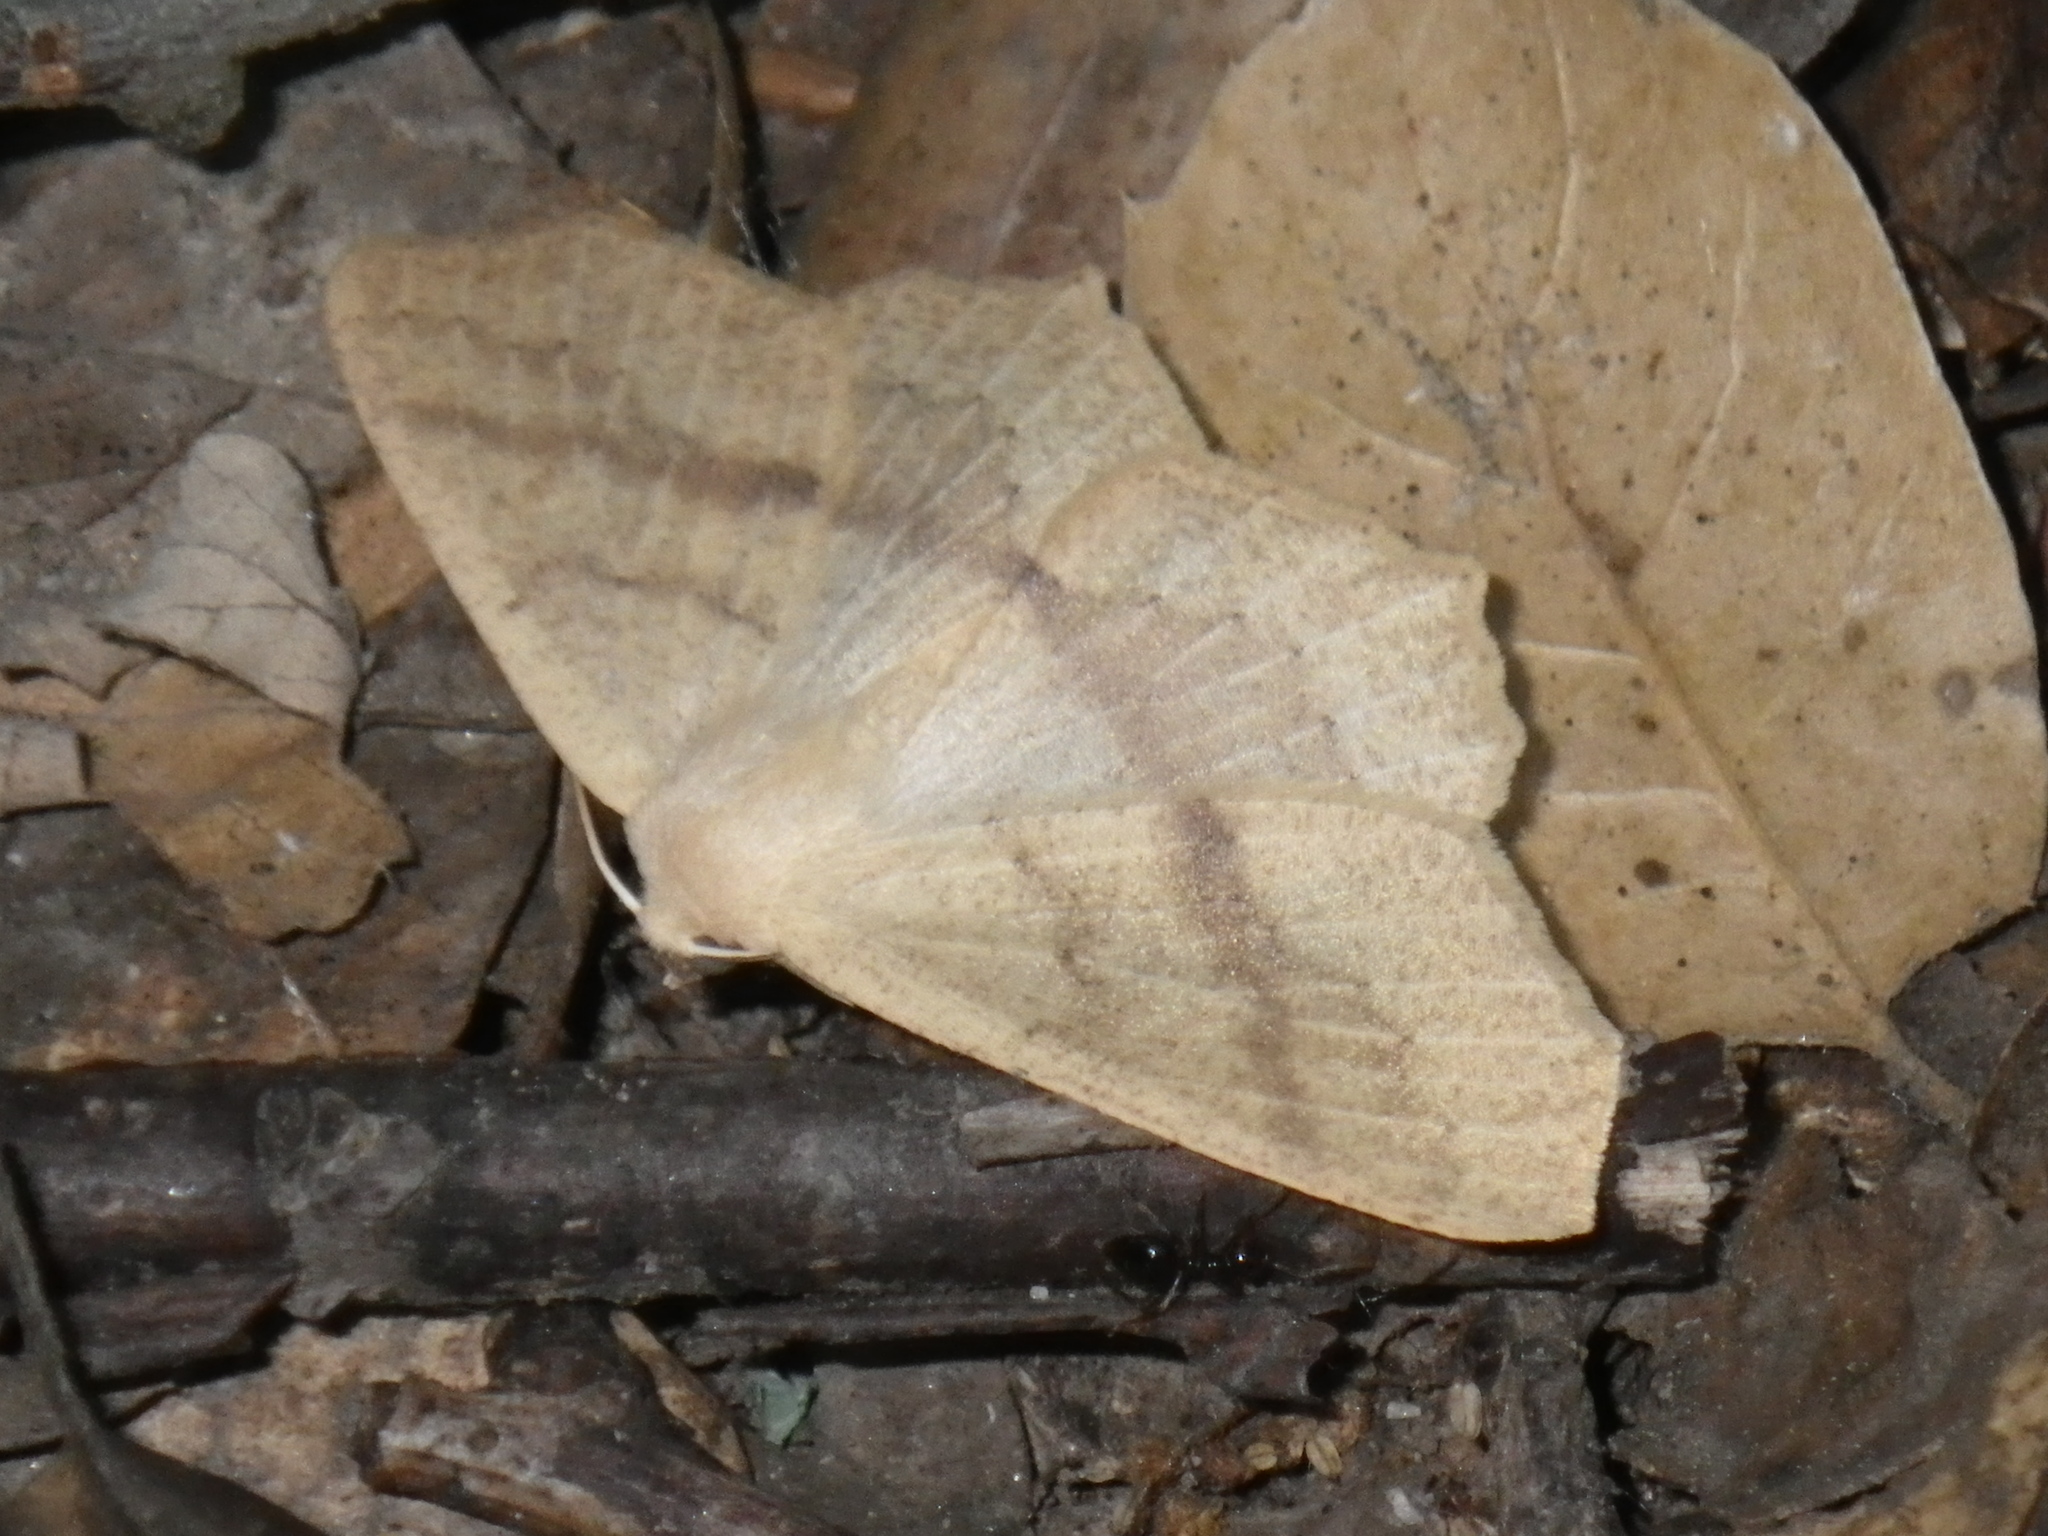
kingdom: Animalia
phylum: Arthropoda
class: Insecta
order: Lepidoptera
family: Geometridae
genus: Sabulodes
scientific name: Sabulodes aegrotata
